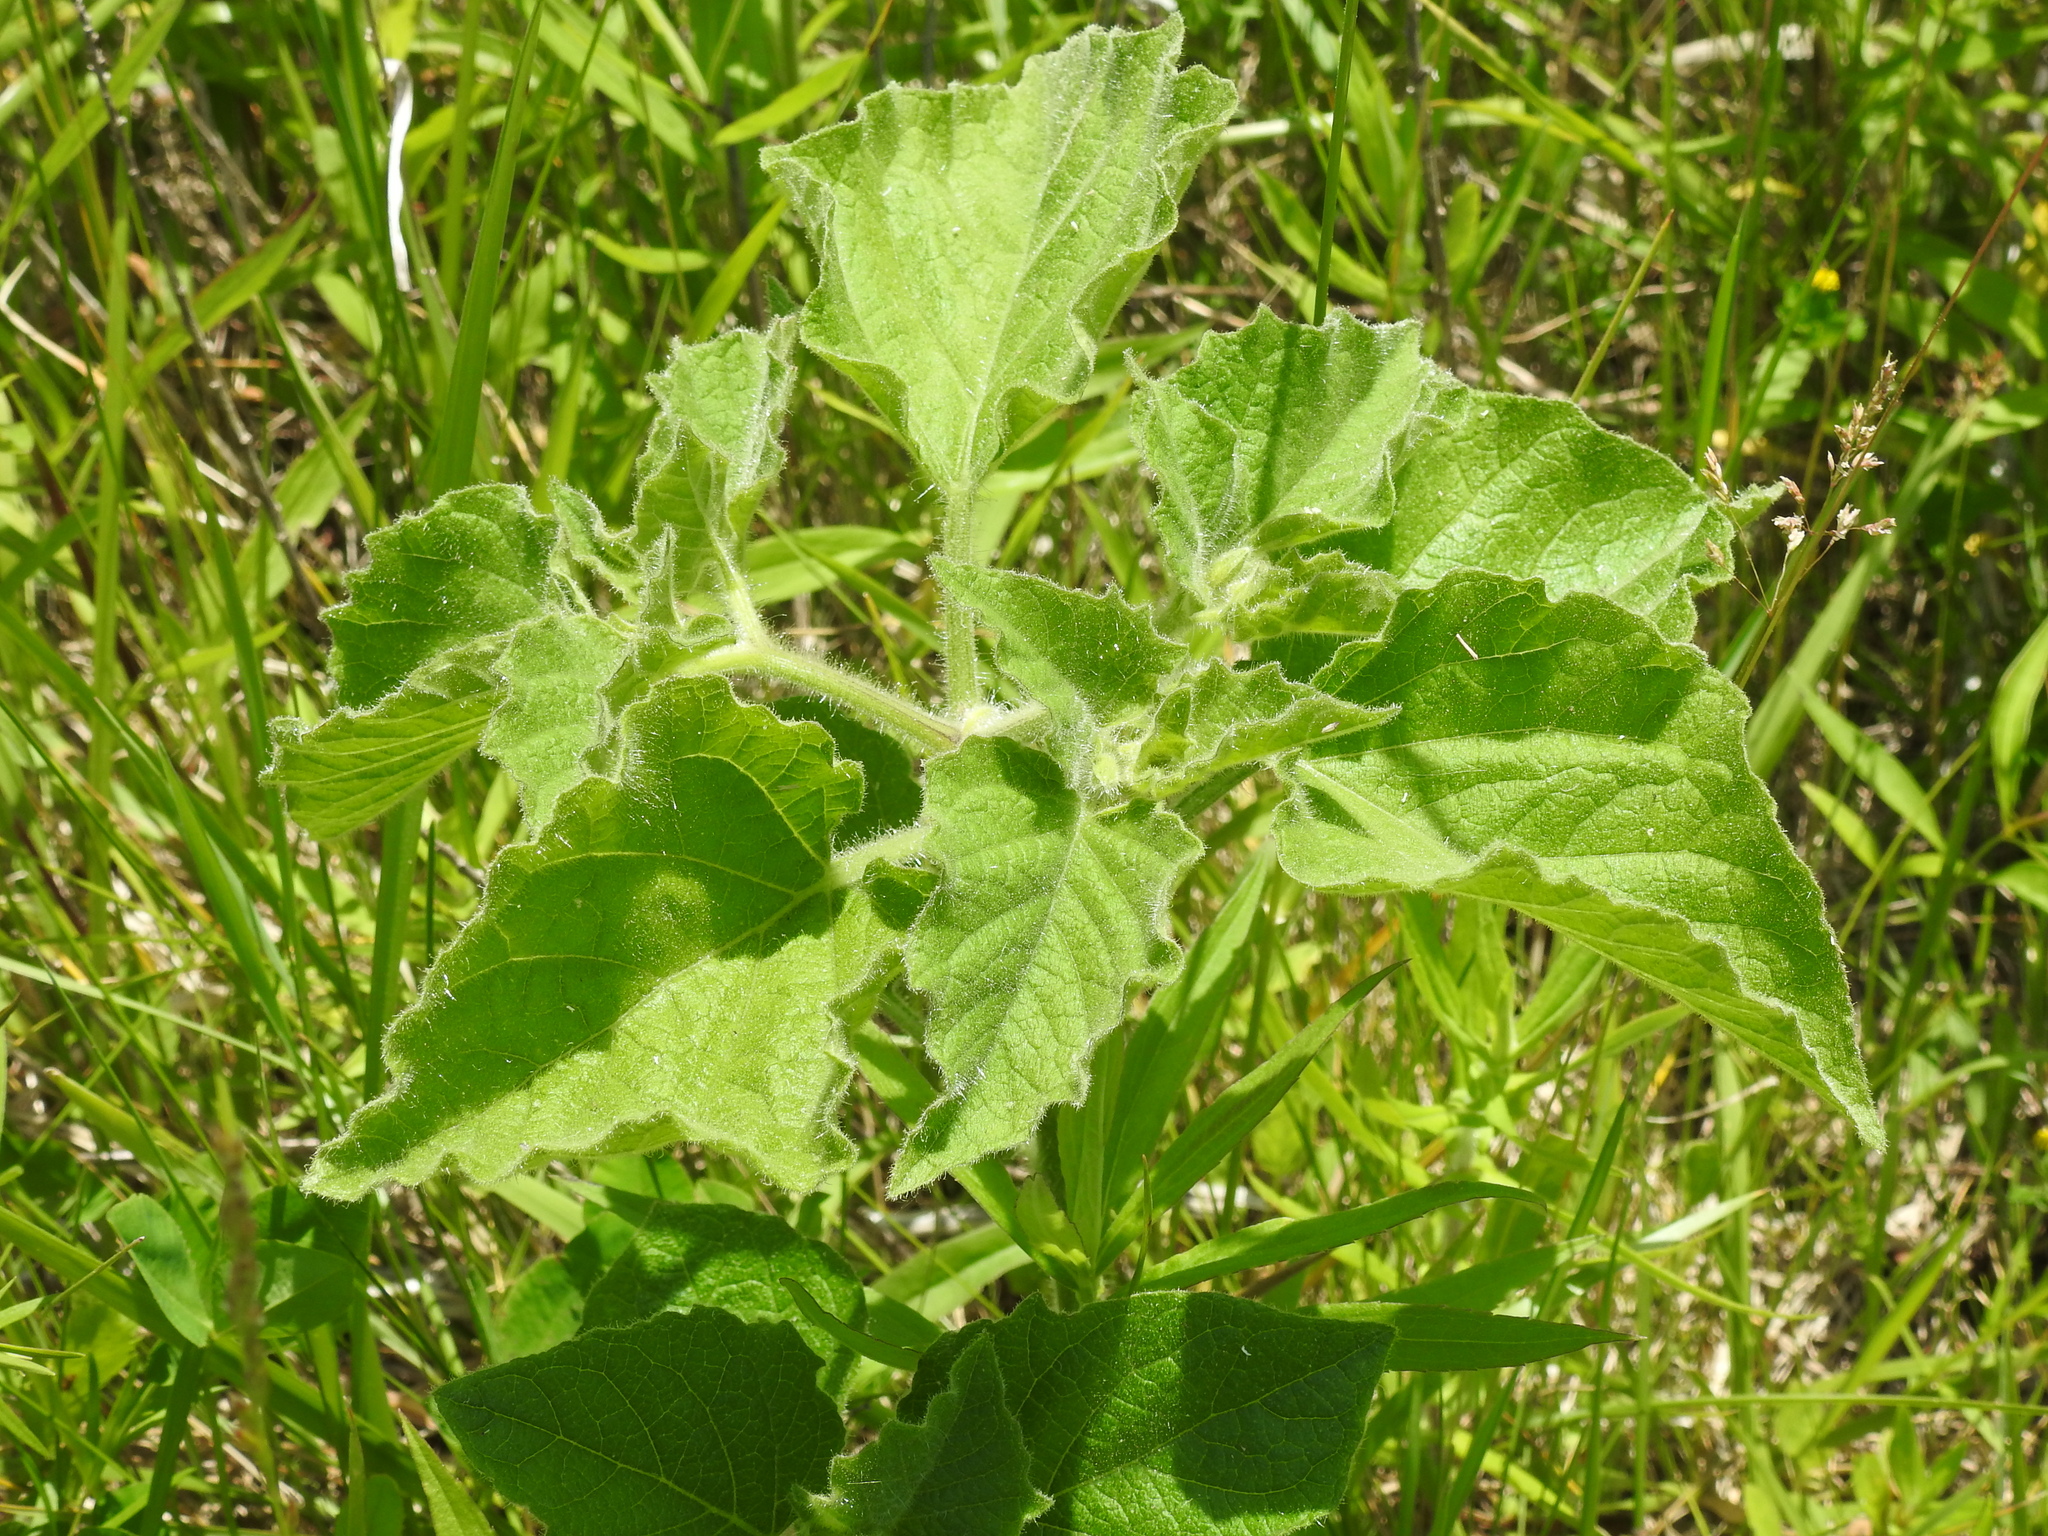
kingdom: Plantae
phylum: Tracheophyta
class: Magnoliopsida
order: Solanales
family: Solanaceae
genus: Physalis
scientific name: Physalis heterophylla
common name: Clammy ground-cherry
